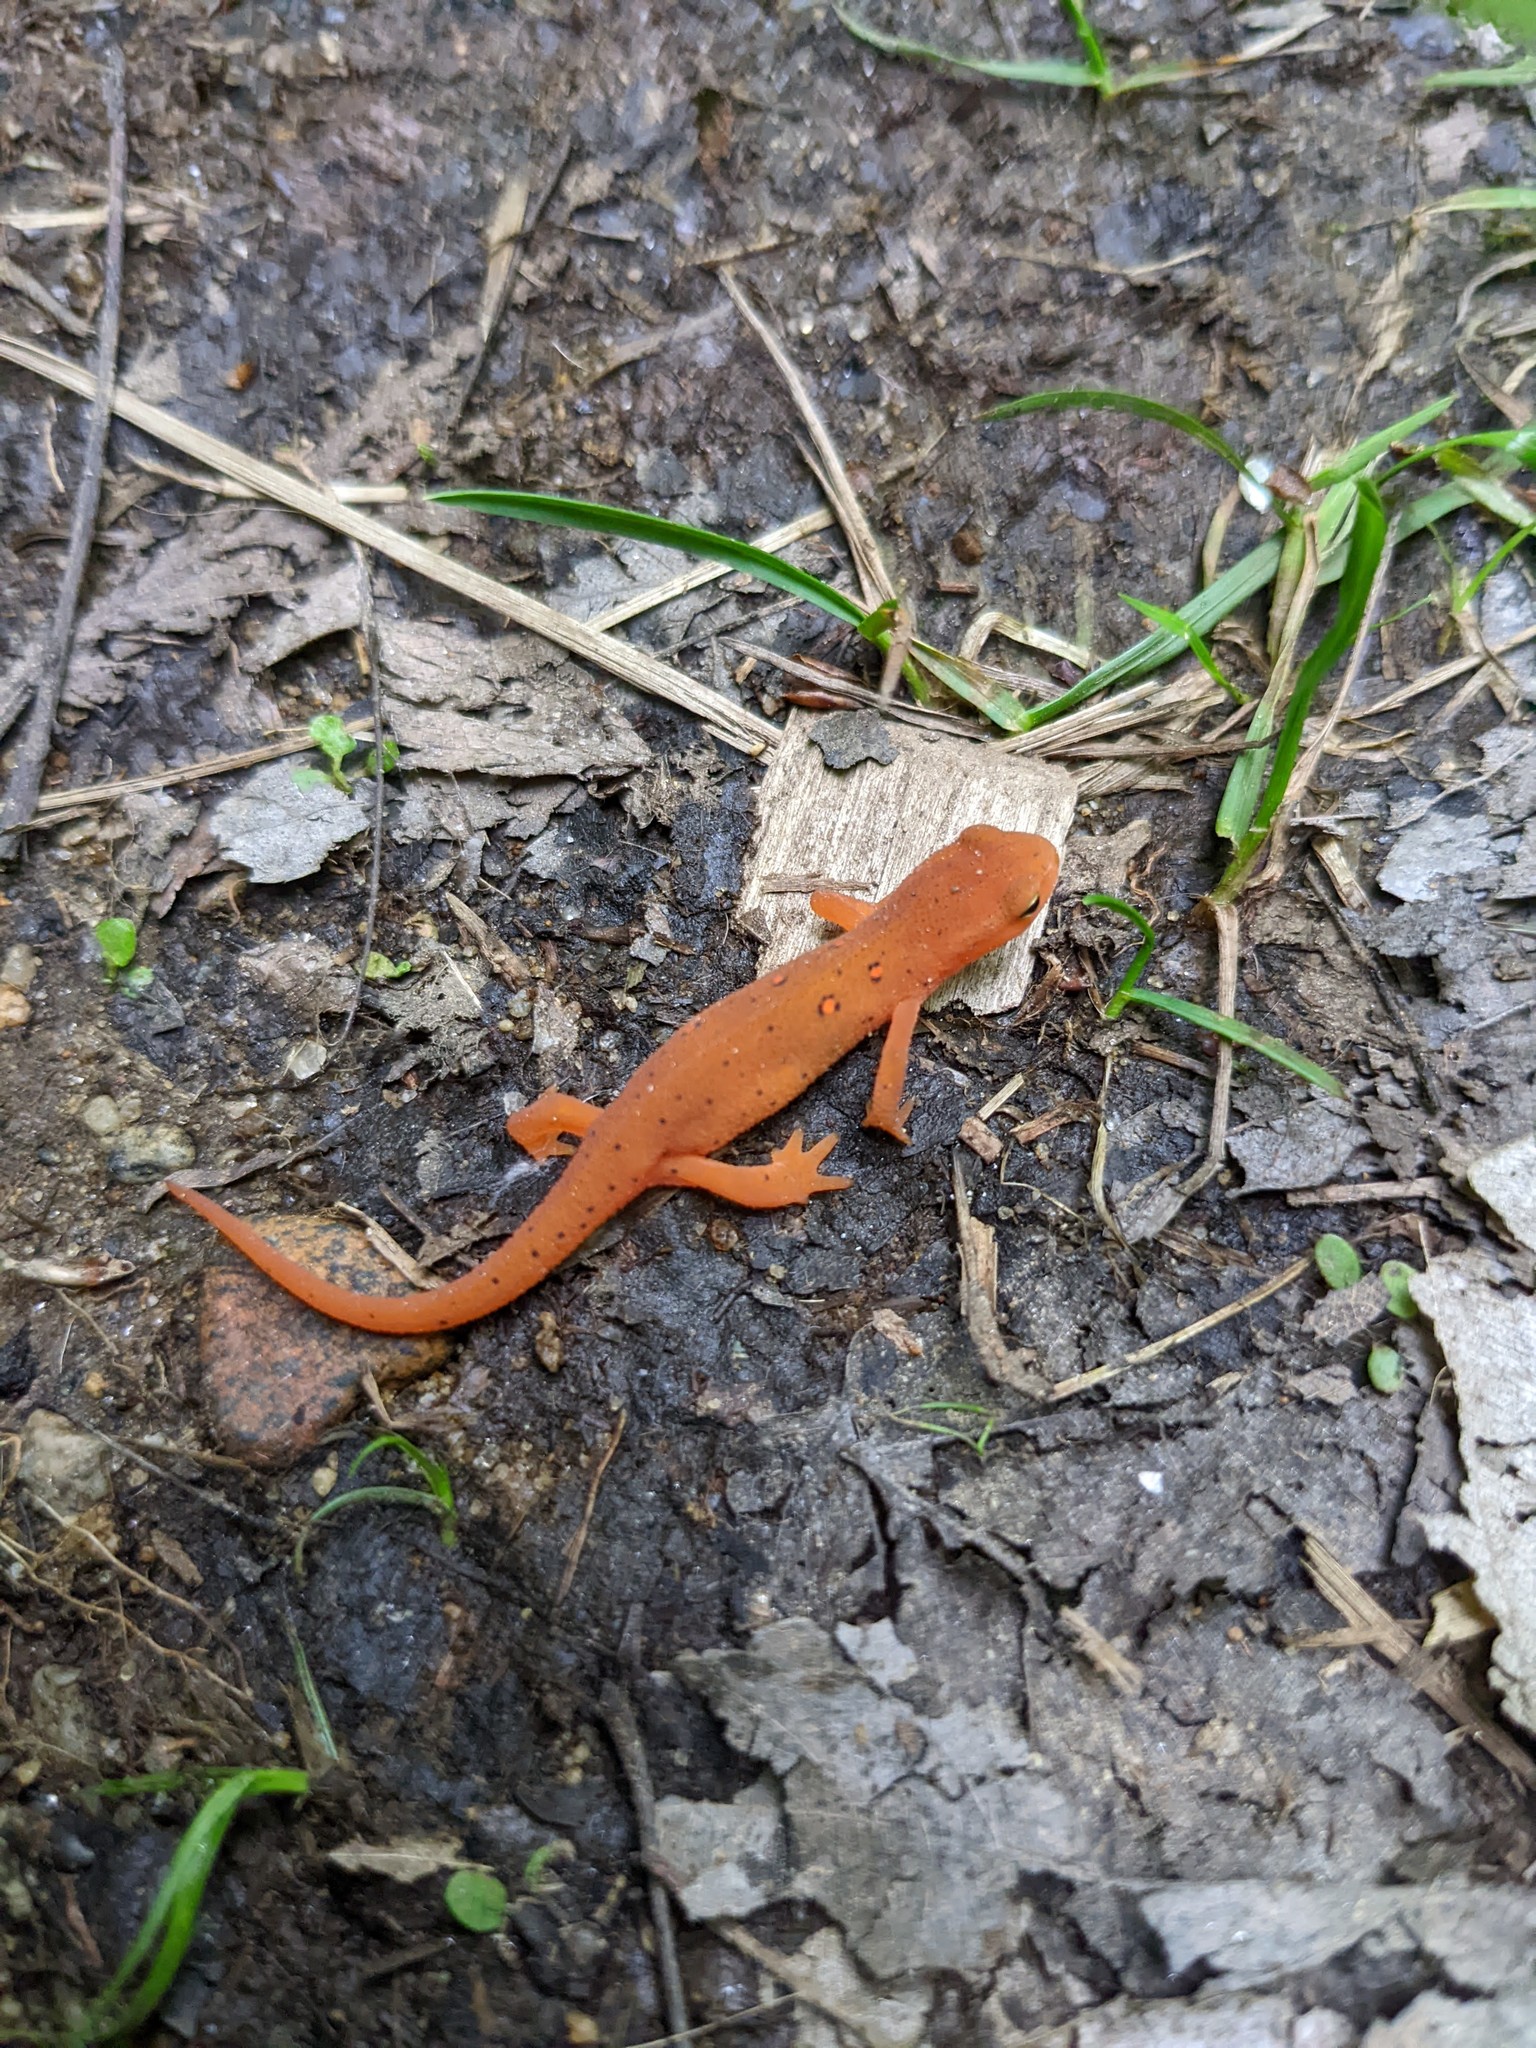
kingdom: Animalia
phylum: Chordata
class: Amphibia
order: Caudata
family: Salamandridae
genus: Notophthalmus
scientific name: Notophthalmus viridescens
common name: Eastern newt
